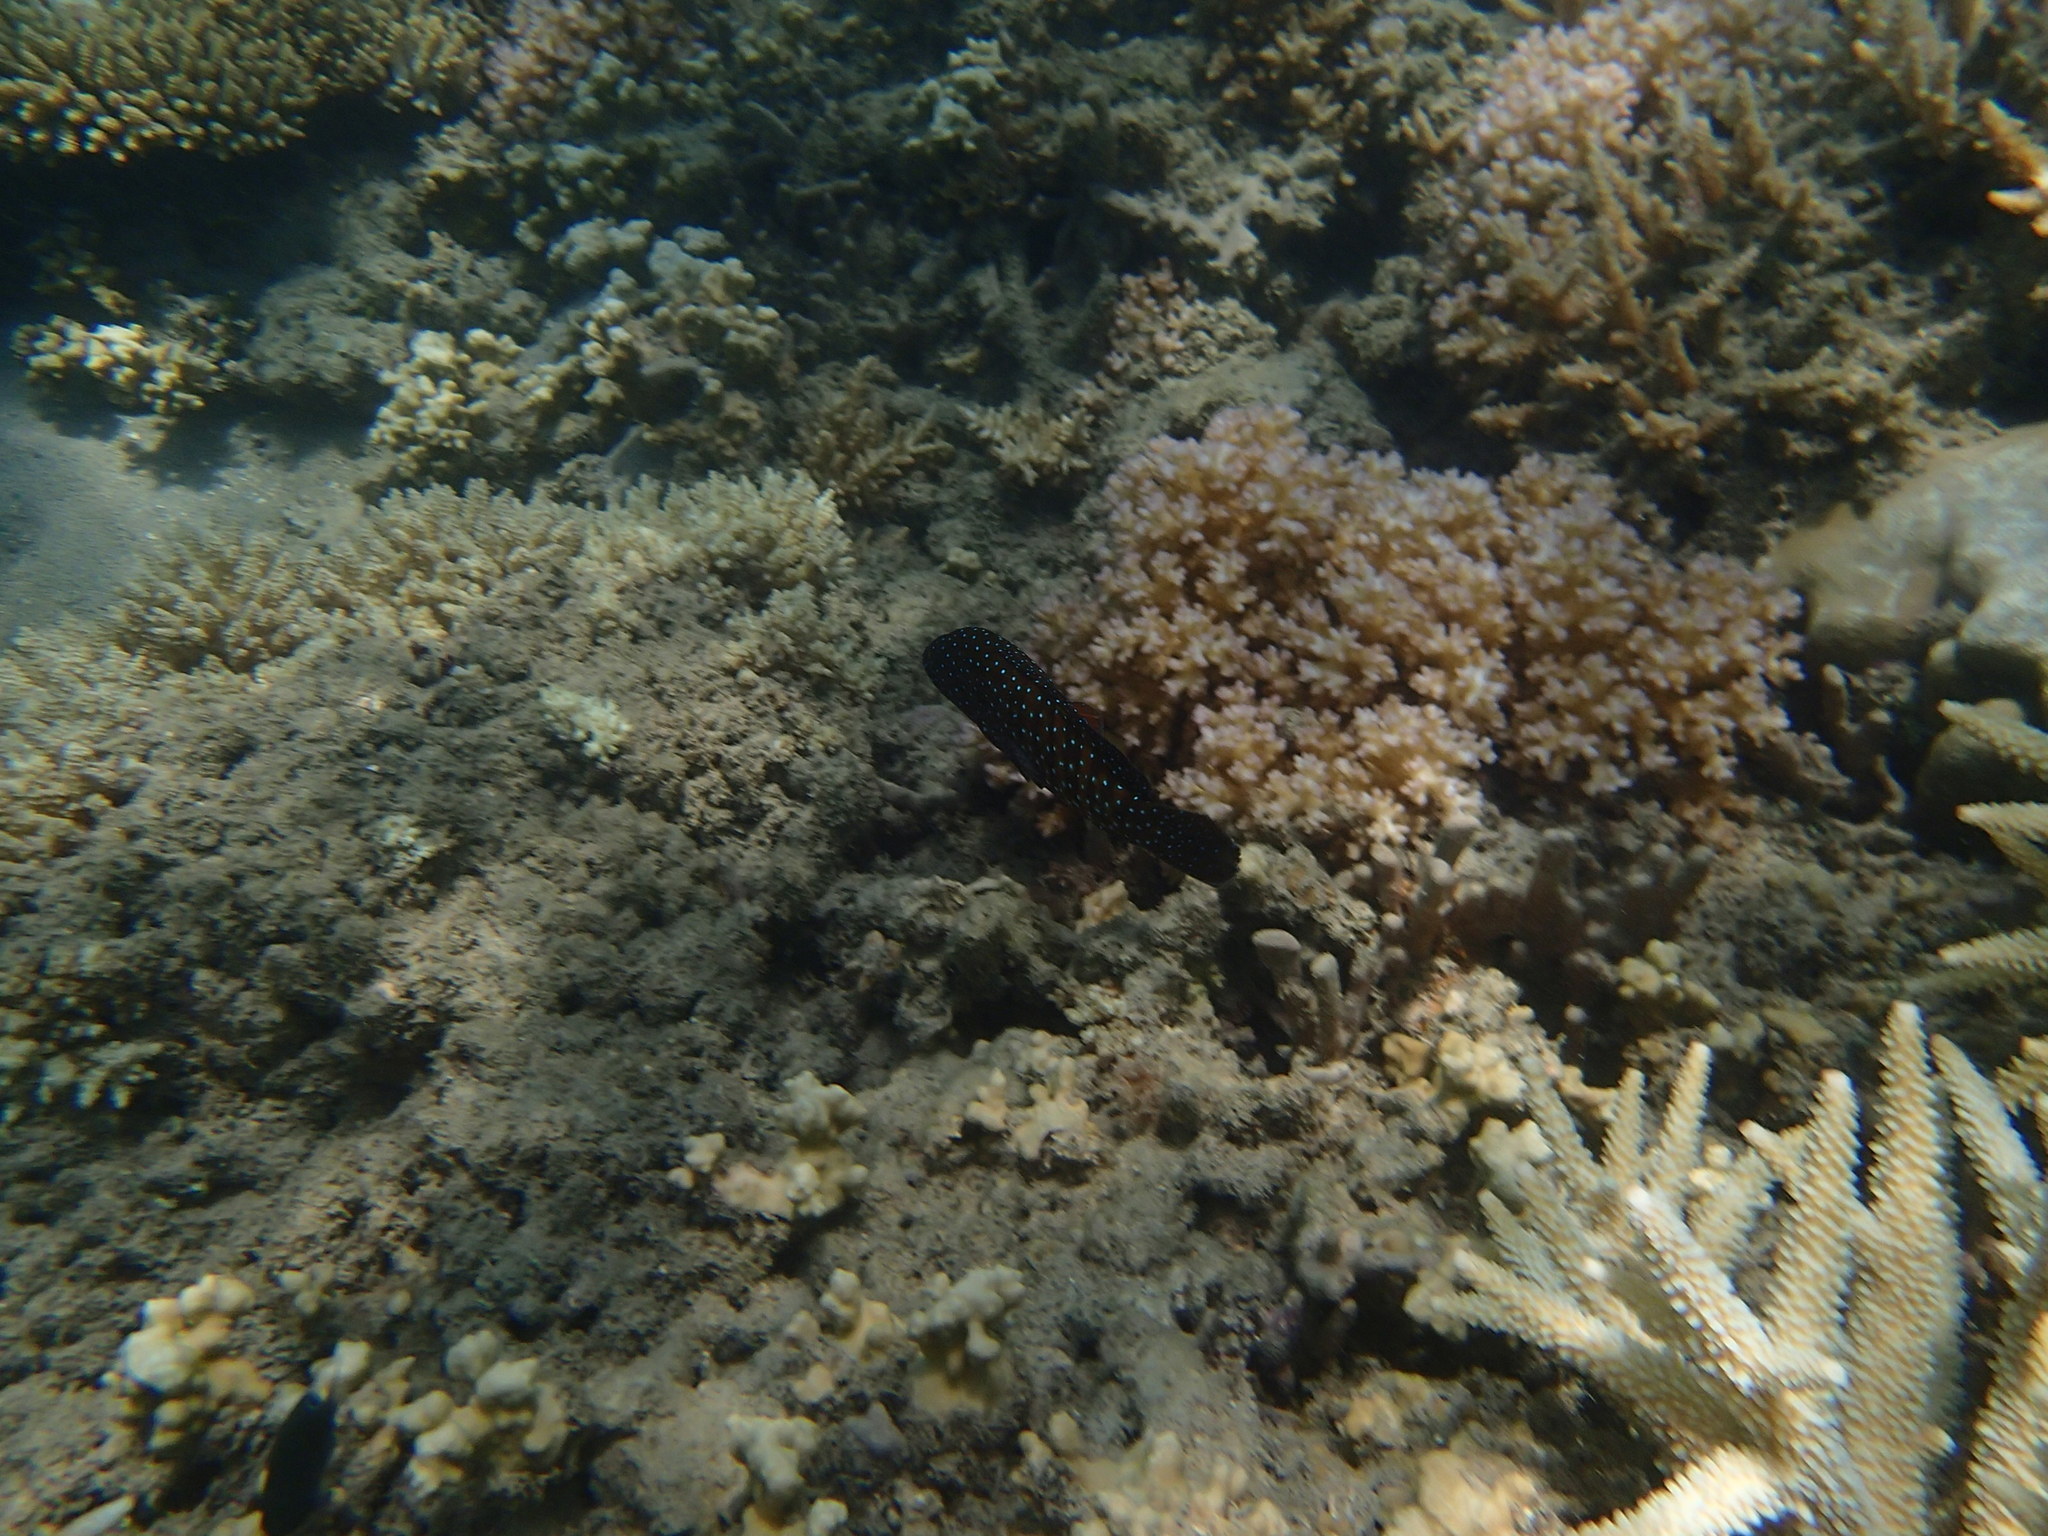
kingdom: Animalia
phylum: Chordata
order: Perciformes
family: Serranidae
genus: Cephalopholis
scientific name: Cephalopholis cyanostigma
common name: Bluespotted hind
